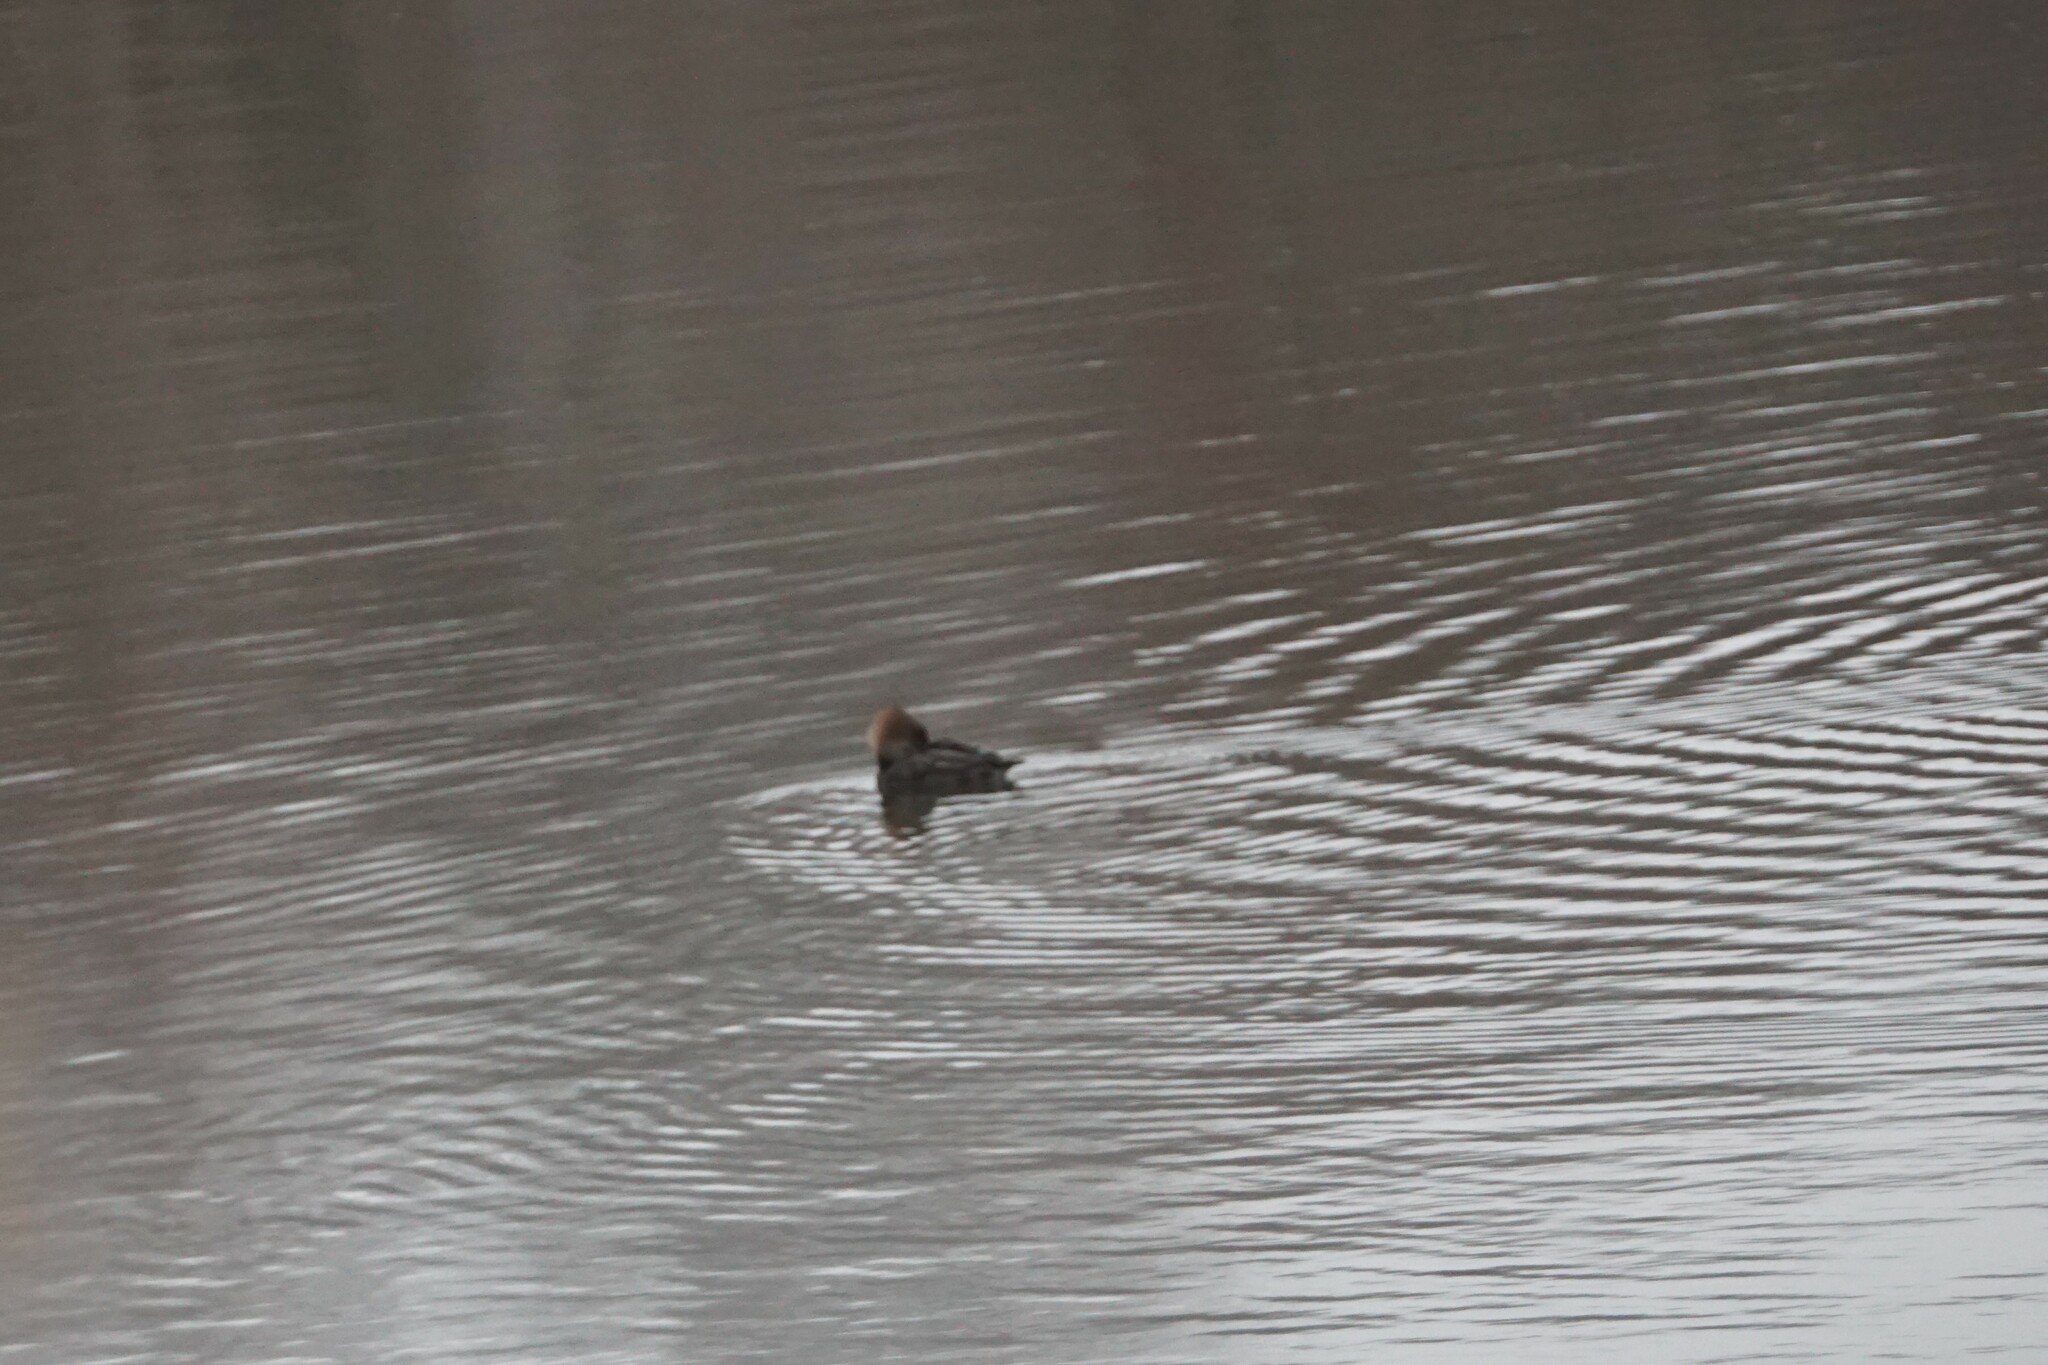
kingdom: Animalia
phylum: Chordata
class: Aves
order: Anseriformes
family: Anatidae
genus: Lophodytes
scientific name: Lophodytes cucullatus
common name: Hooded merganser
